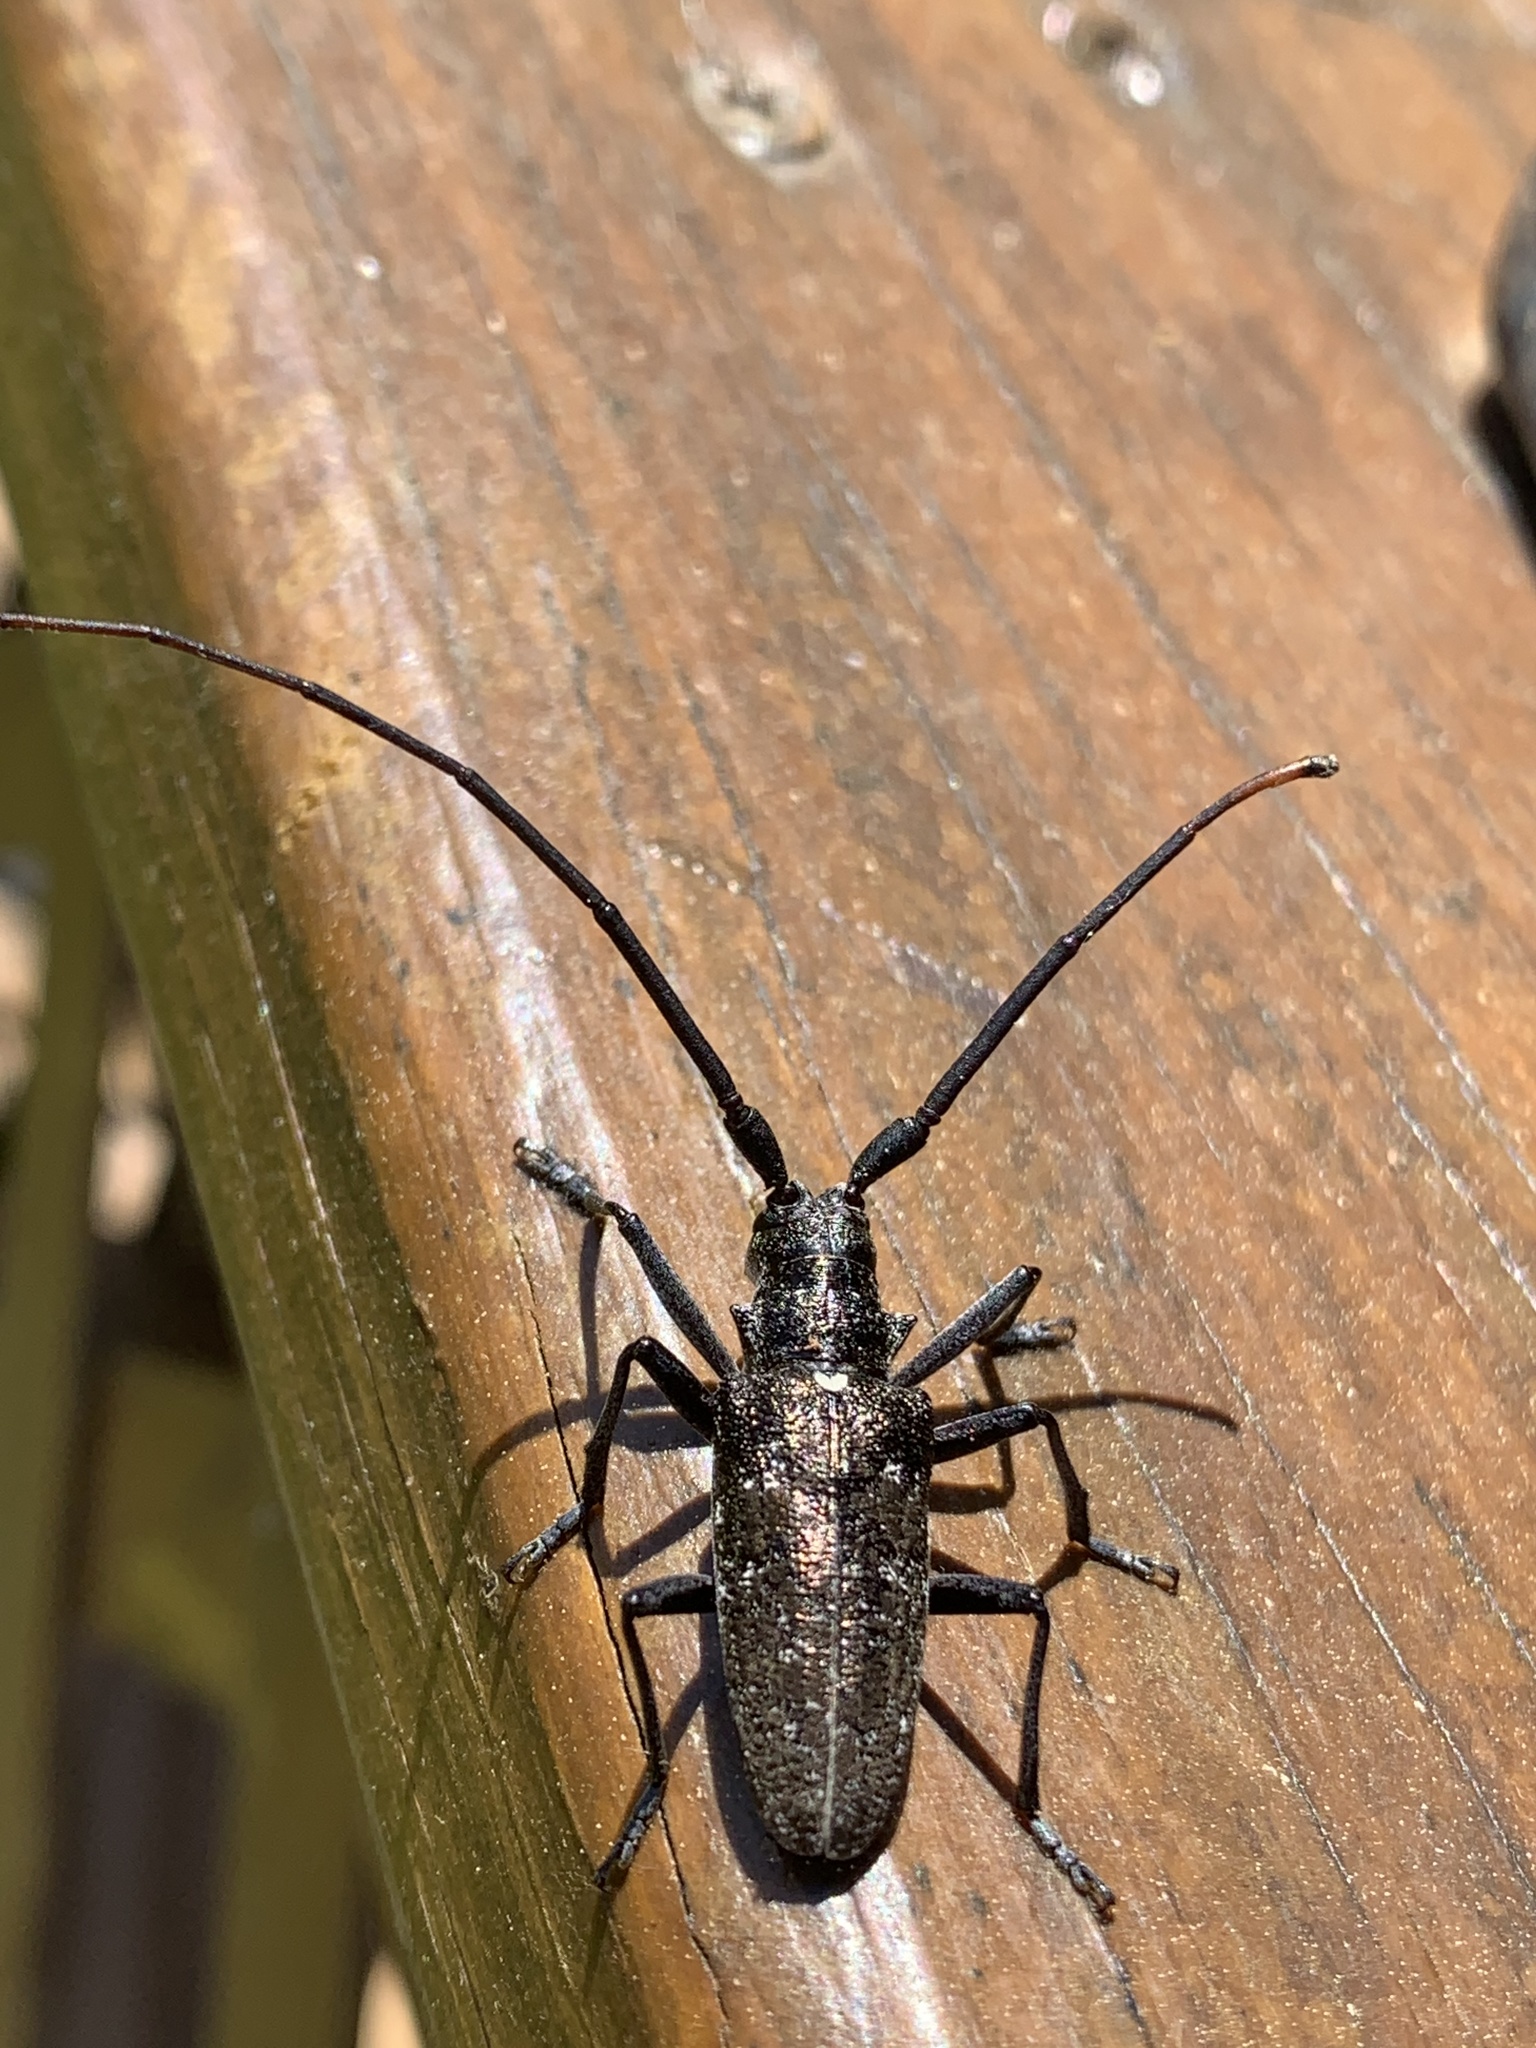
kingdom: Animalia
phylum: Arthropoda
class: Insecta
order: Coleoptera
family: Cerambycidae
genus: Monochamus
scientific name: Monochamus scutellatus
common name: White-spotted sawyer beetle
